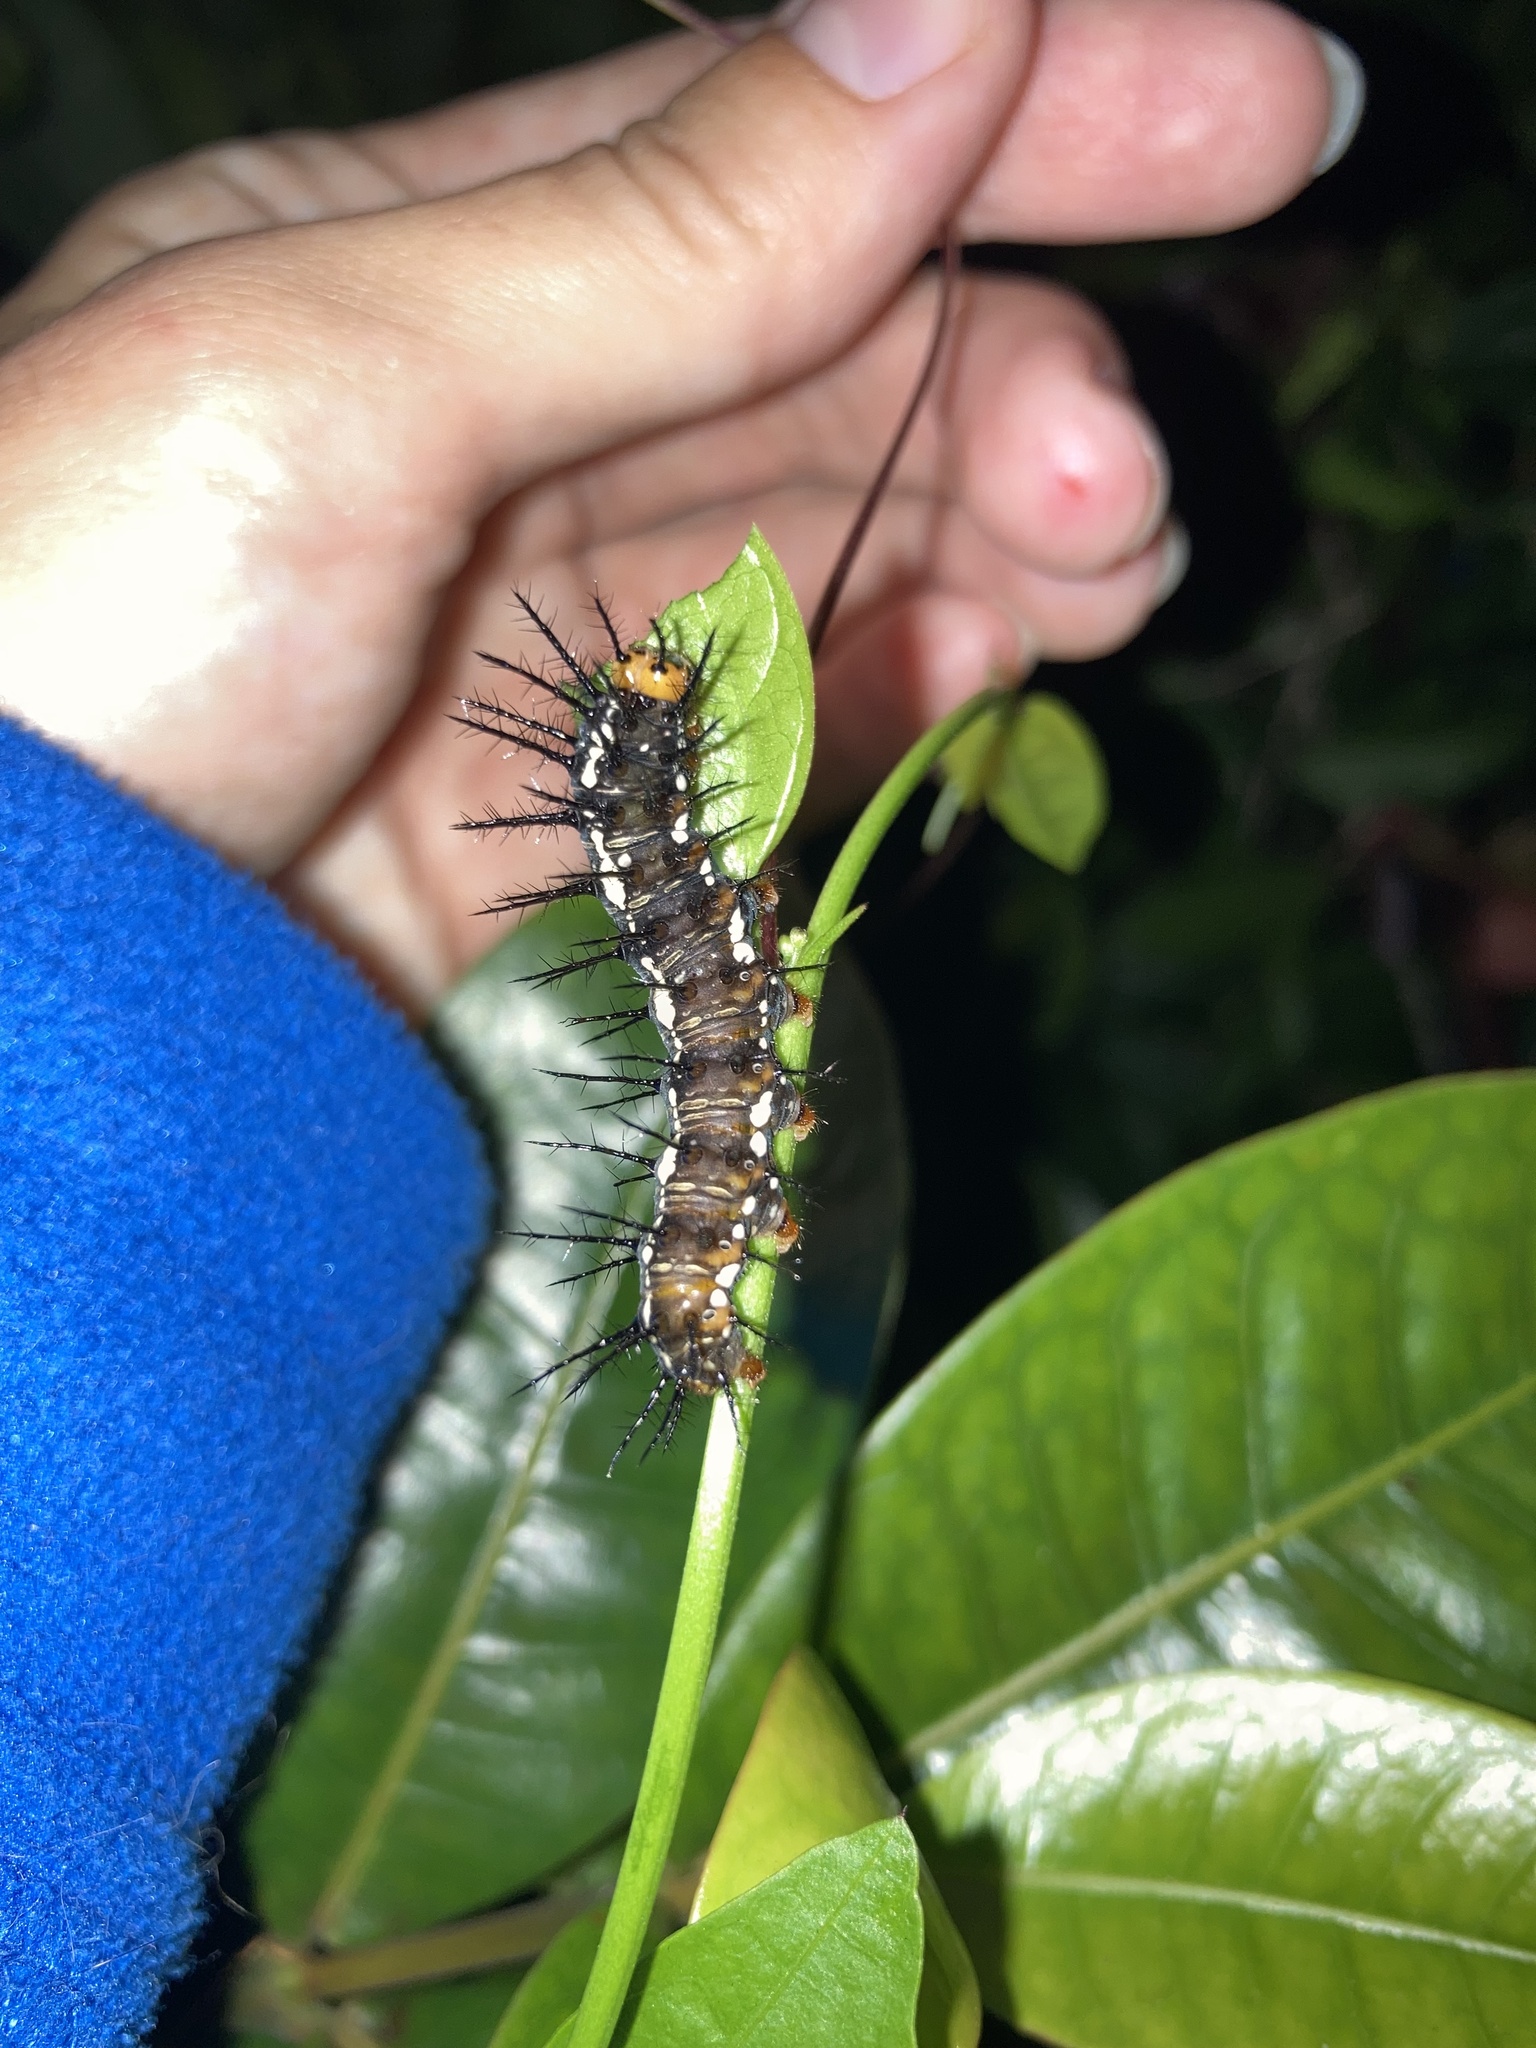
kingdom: Animalia
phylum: Arthropoda
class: Insecta
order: Lepidoptera
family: Nymphalidae
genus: Dryas
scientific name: Dryas iulia
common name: Flambeau
